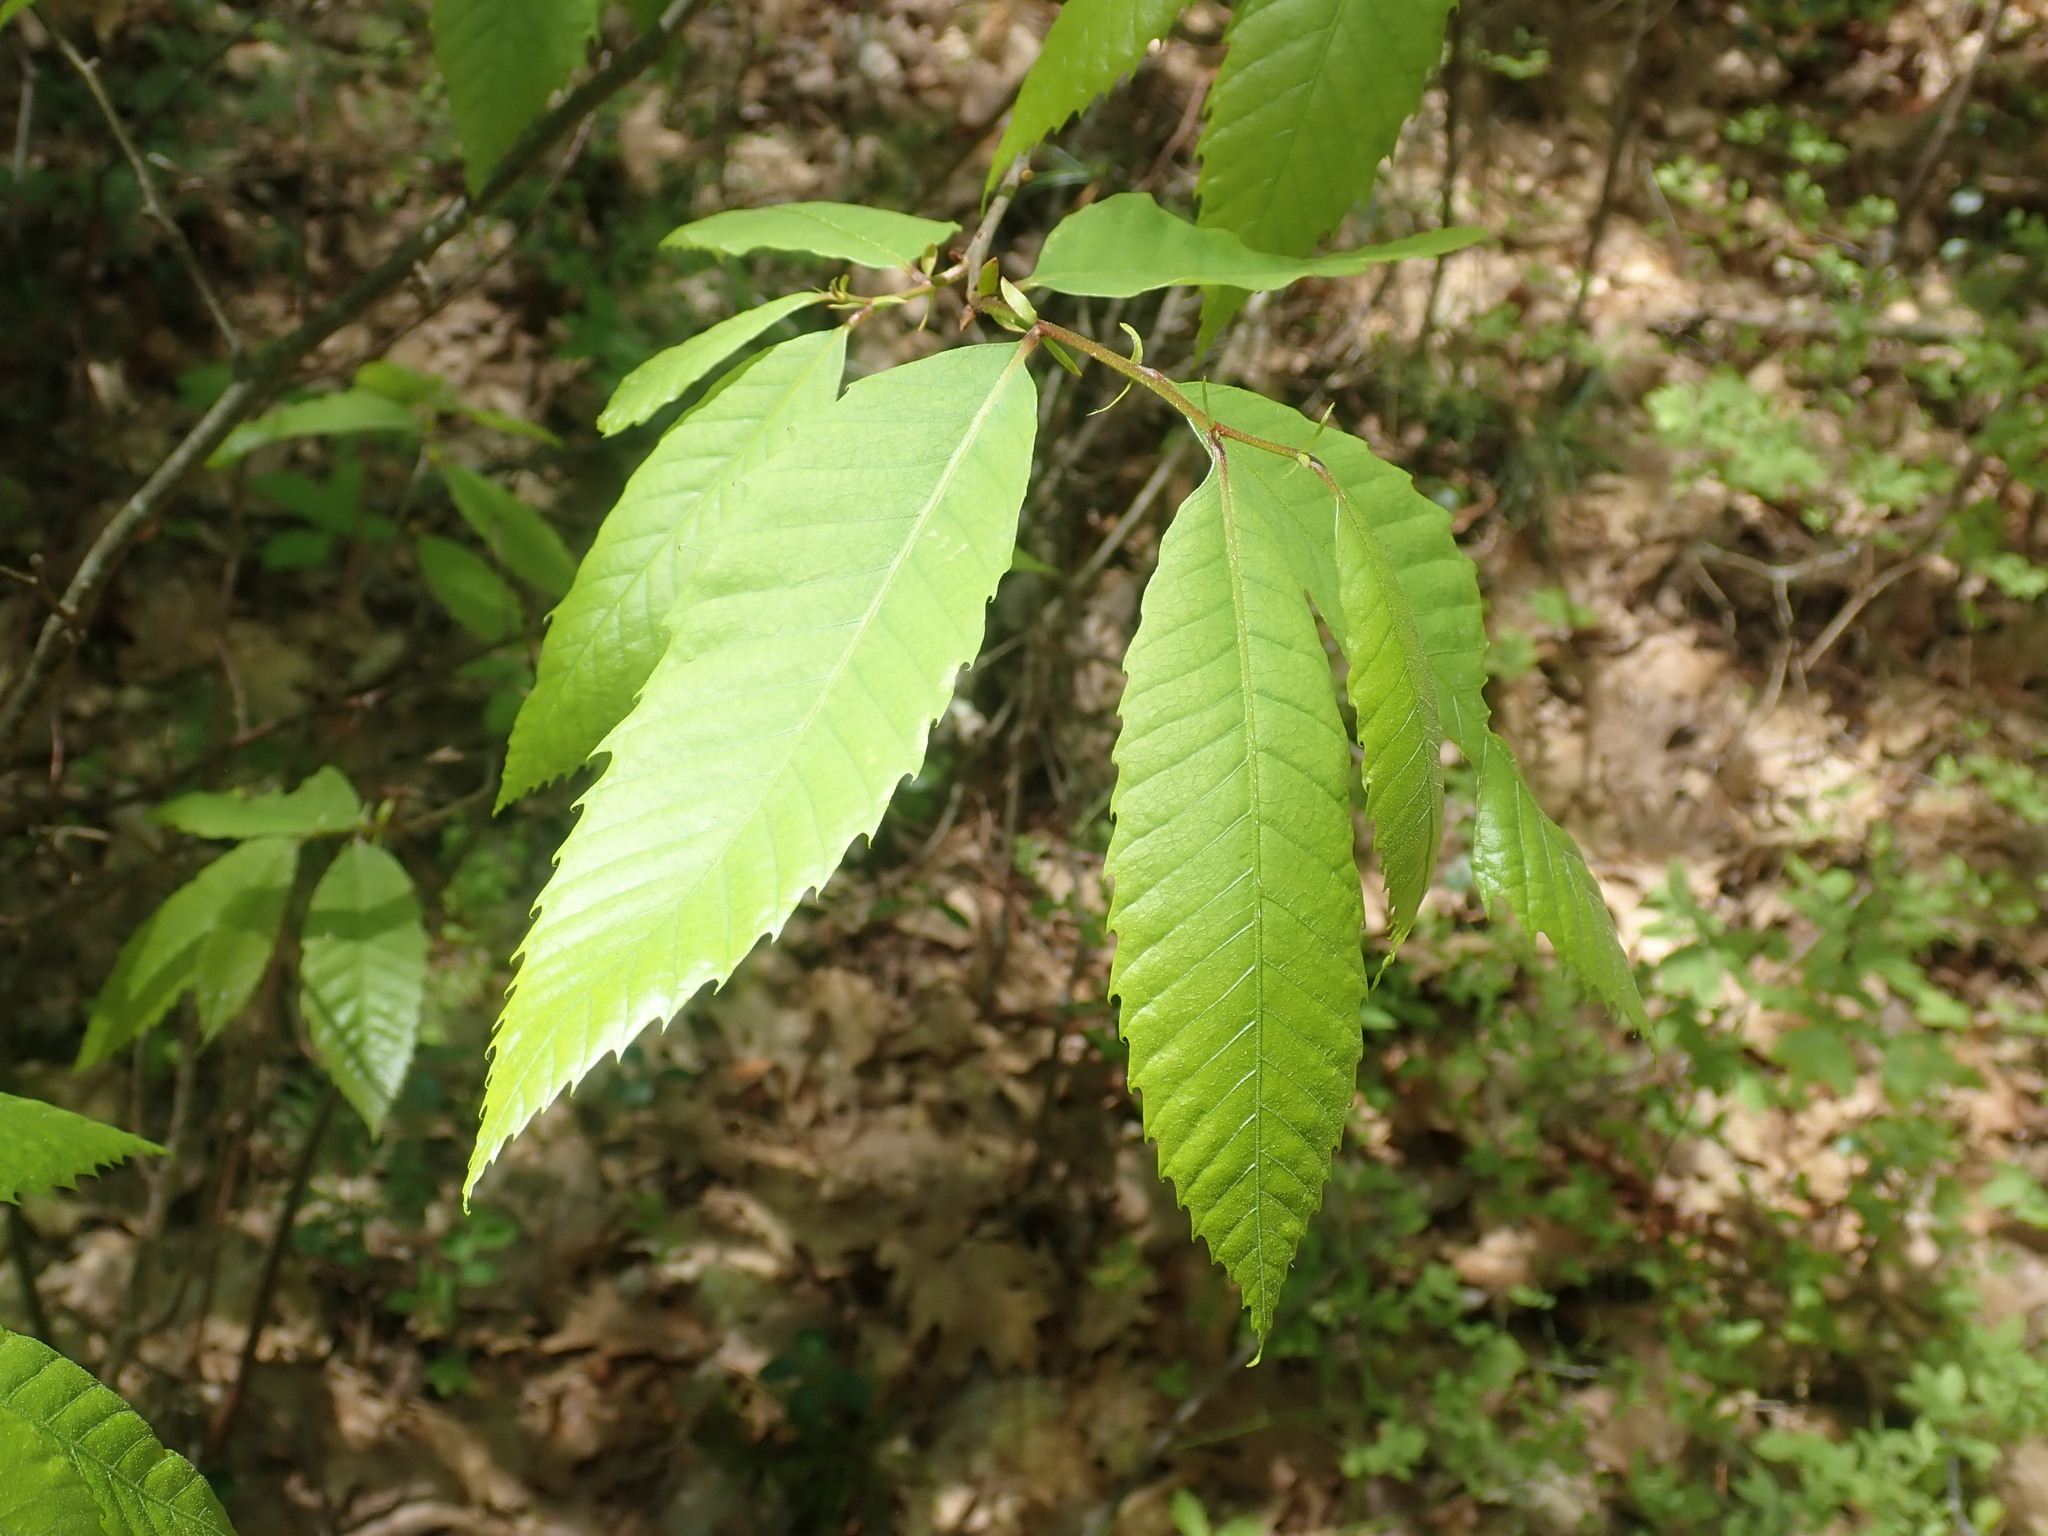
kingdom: Plantae
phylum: Tracheophyta
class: Magnoliopsida
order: Fagales
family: Fagaceae
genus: Castanea
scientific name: Castanea dentata
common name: American chestnut
